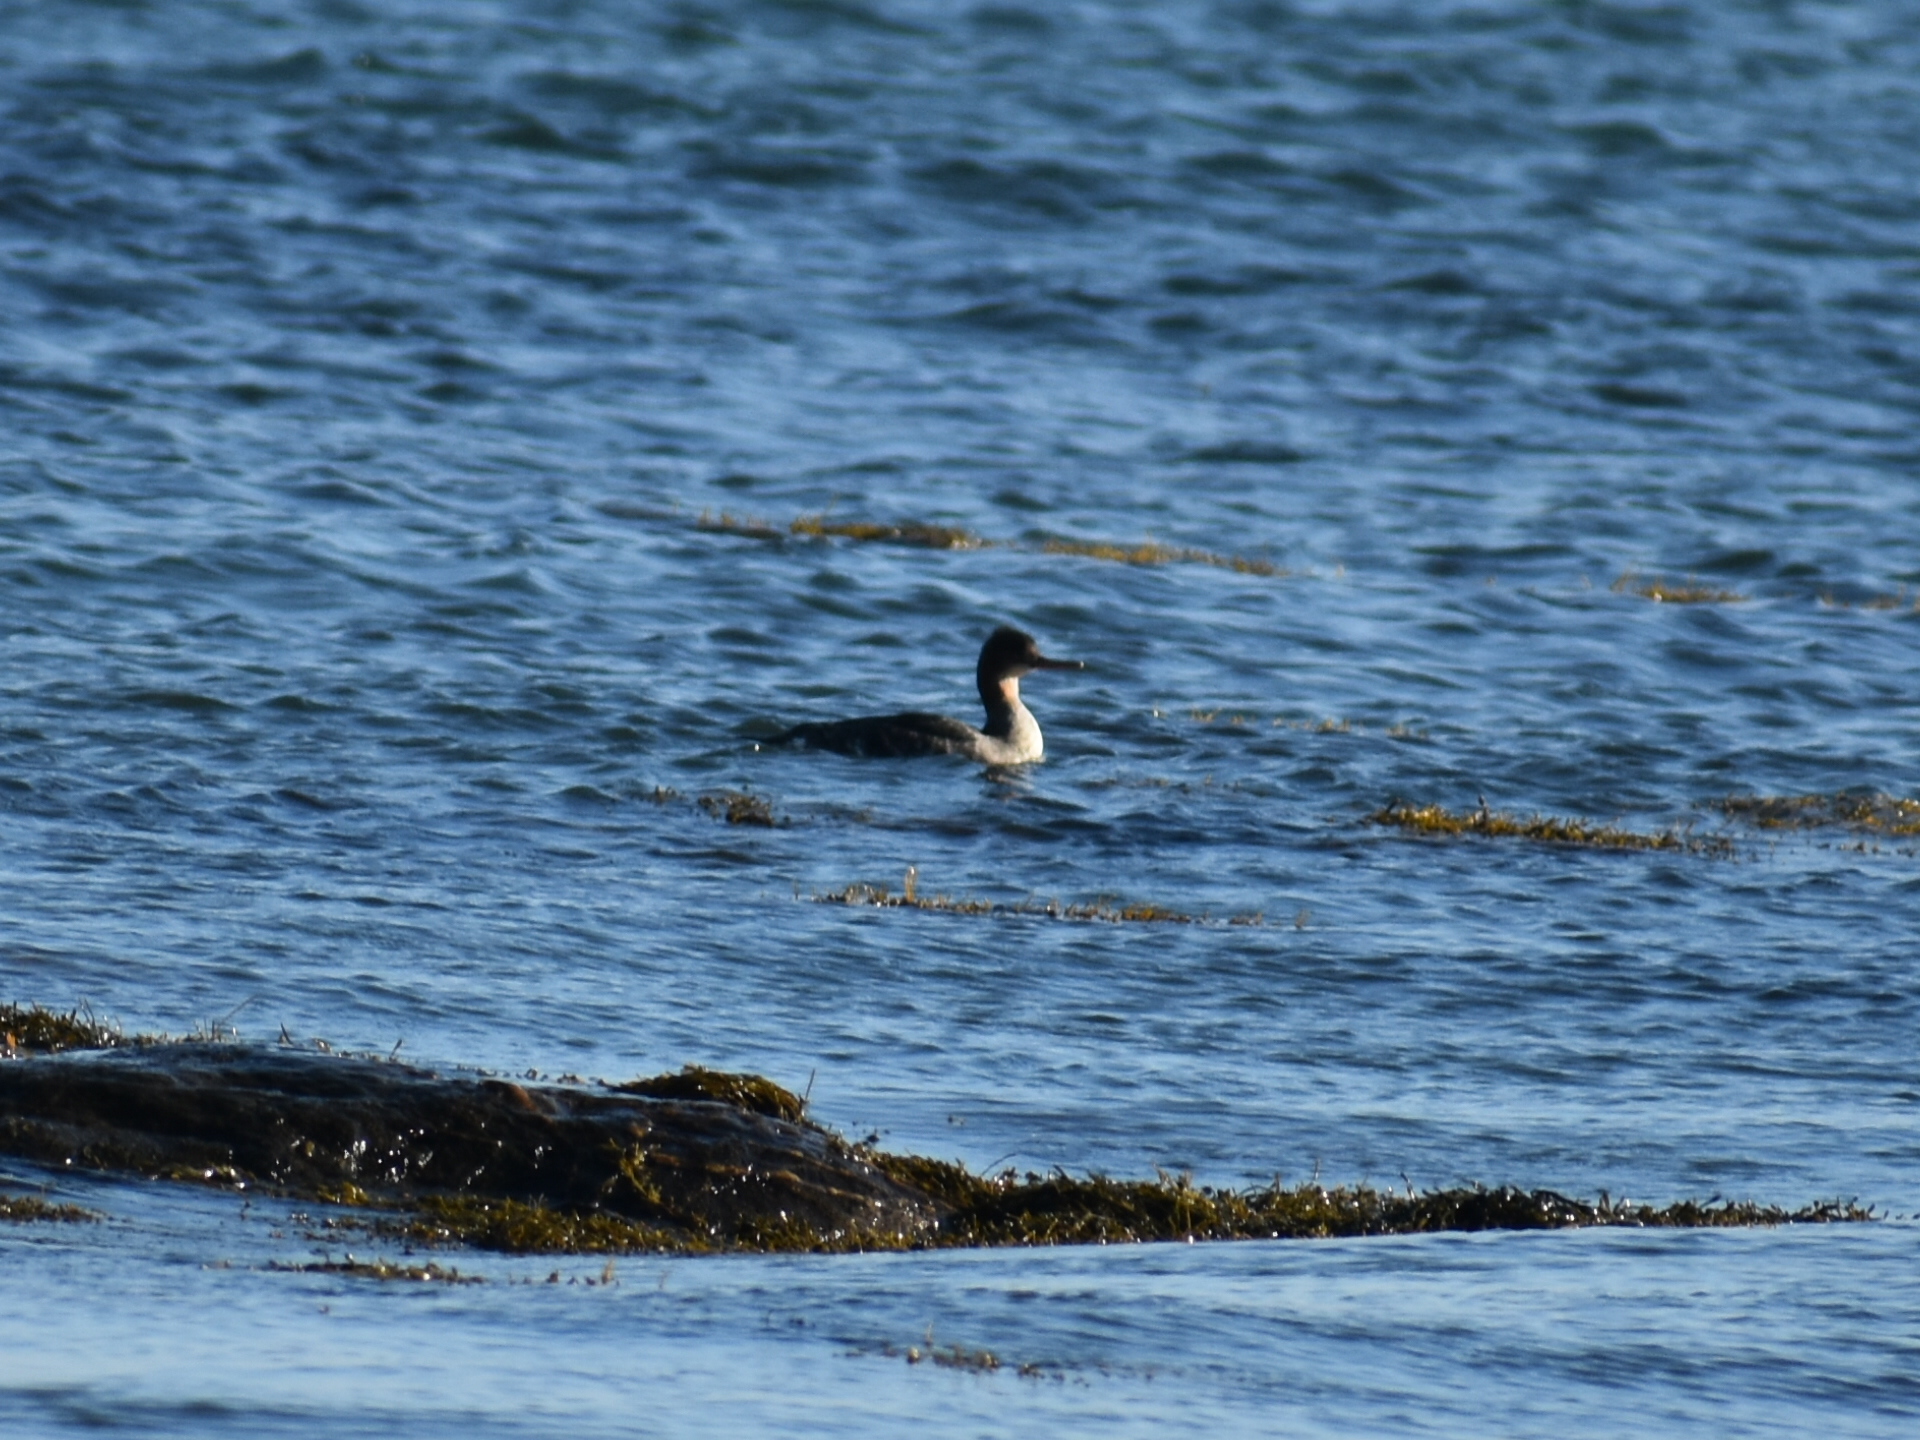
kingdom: Animalia
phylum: Chordata
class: Aves
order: Anseriformes
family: Anatidae
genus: Mergus
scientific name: Mergus serrator
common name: Red-breasted merganser
